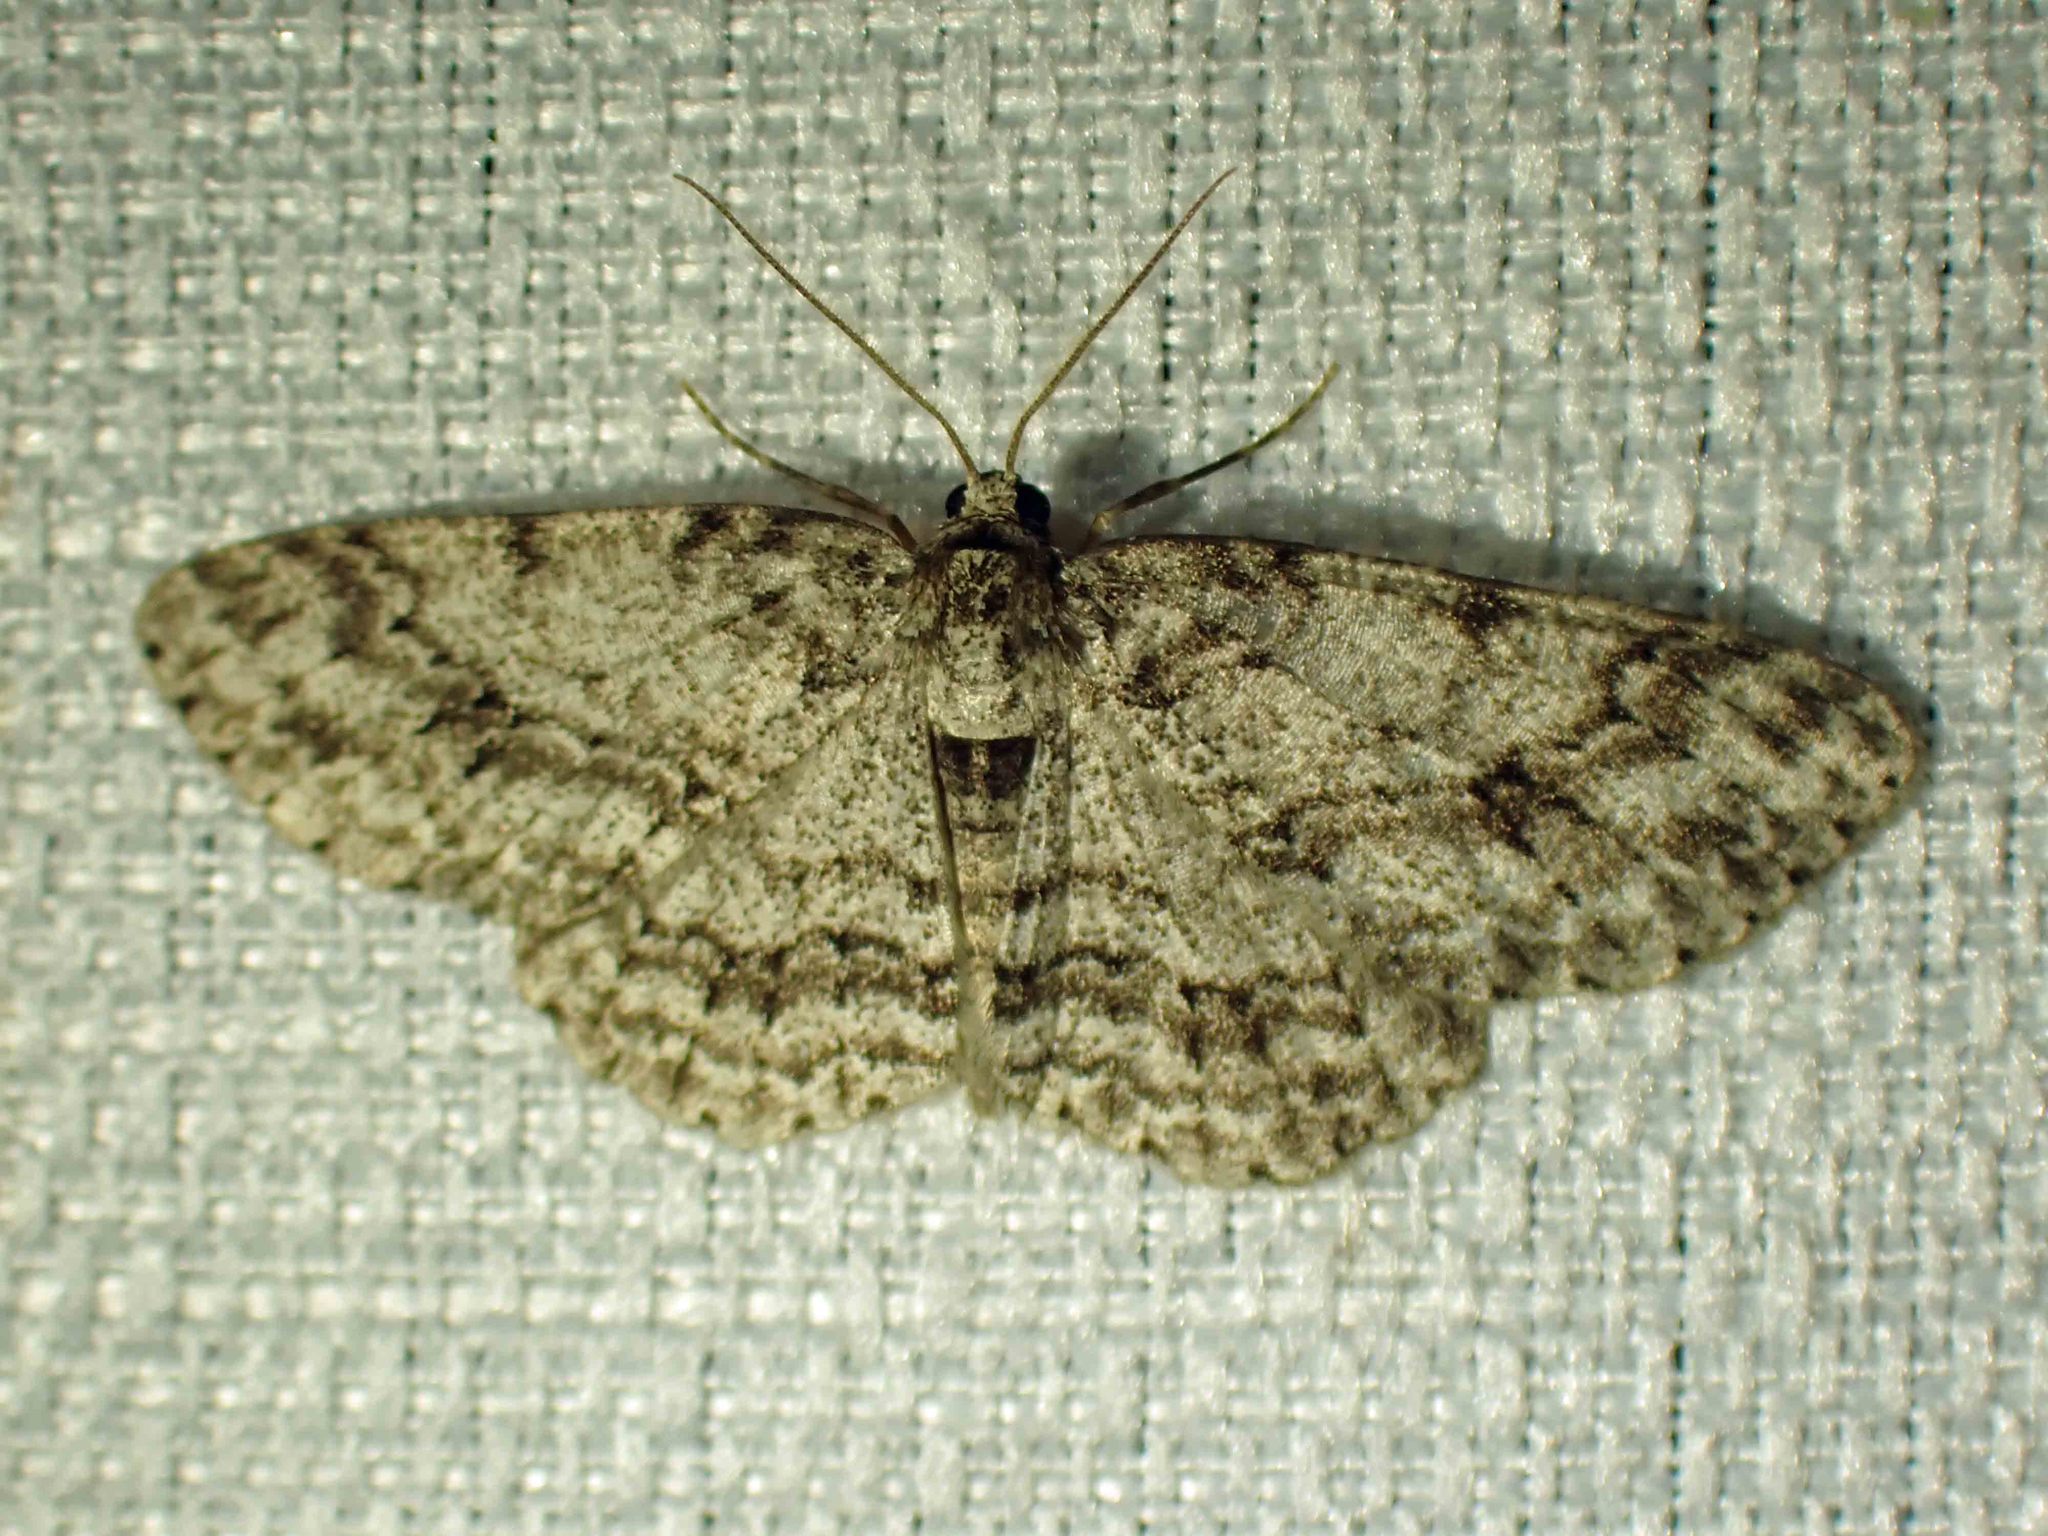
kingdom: Animalia
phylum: Arthropoda
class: Insecta
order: Lepidoptera
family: Geometridae
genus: Ectropis
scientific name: Ectropis crepuscularia
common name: Engrailed
